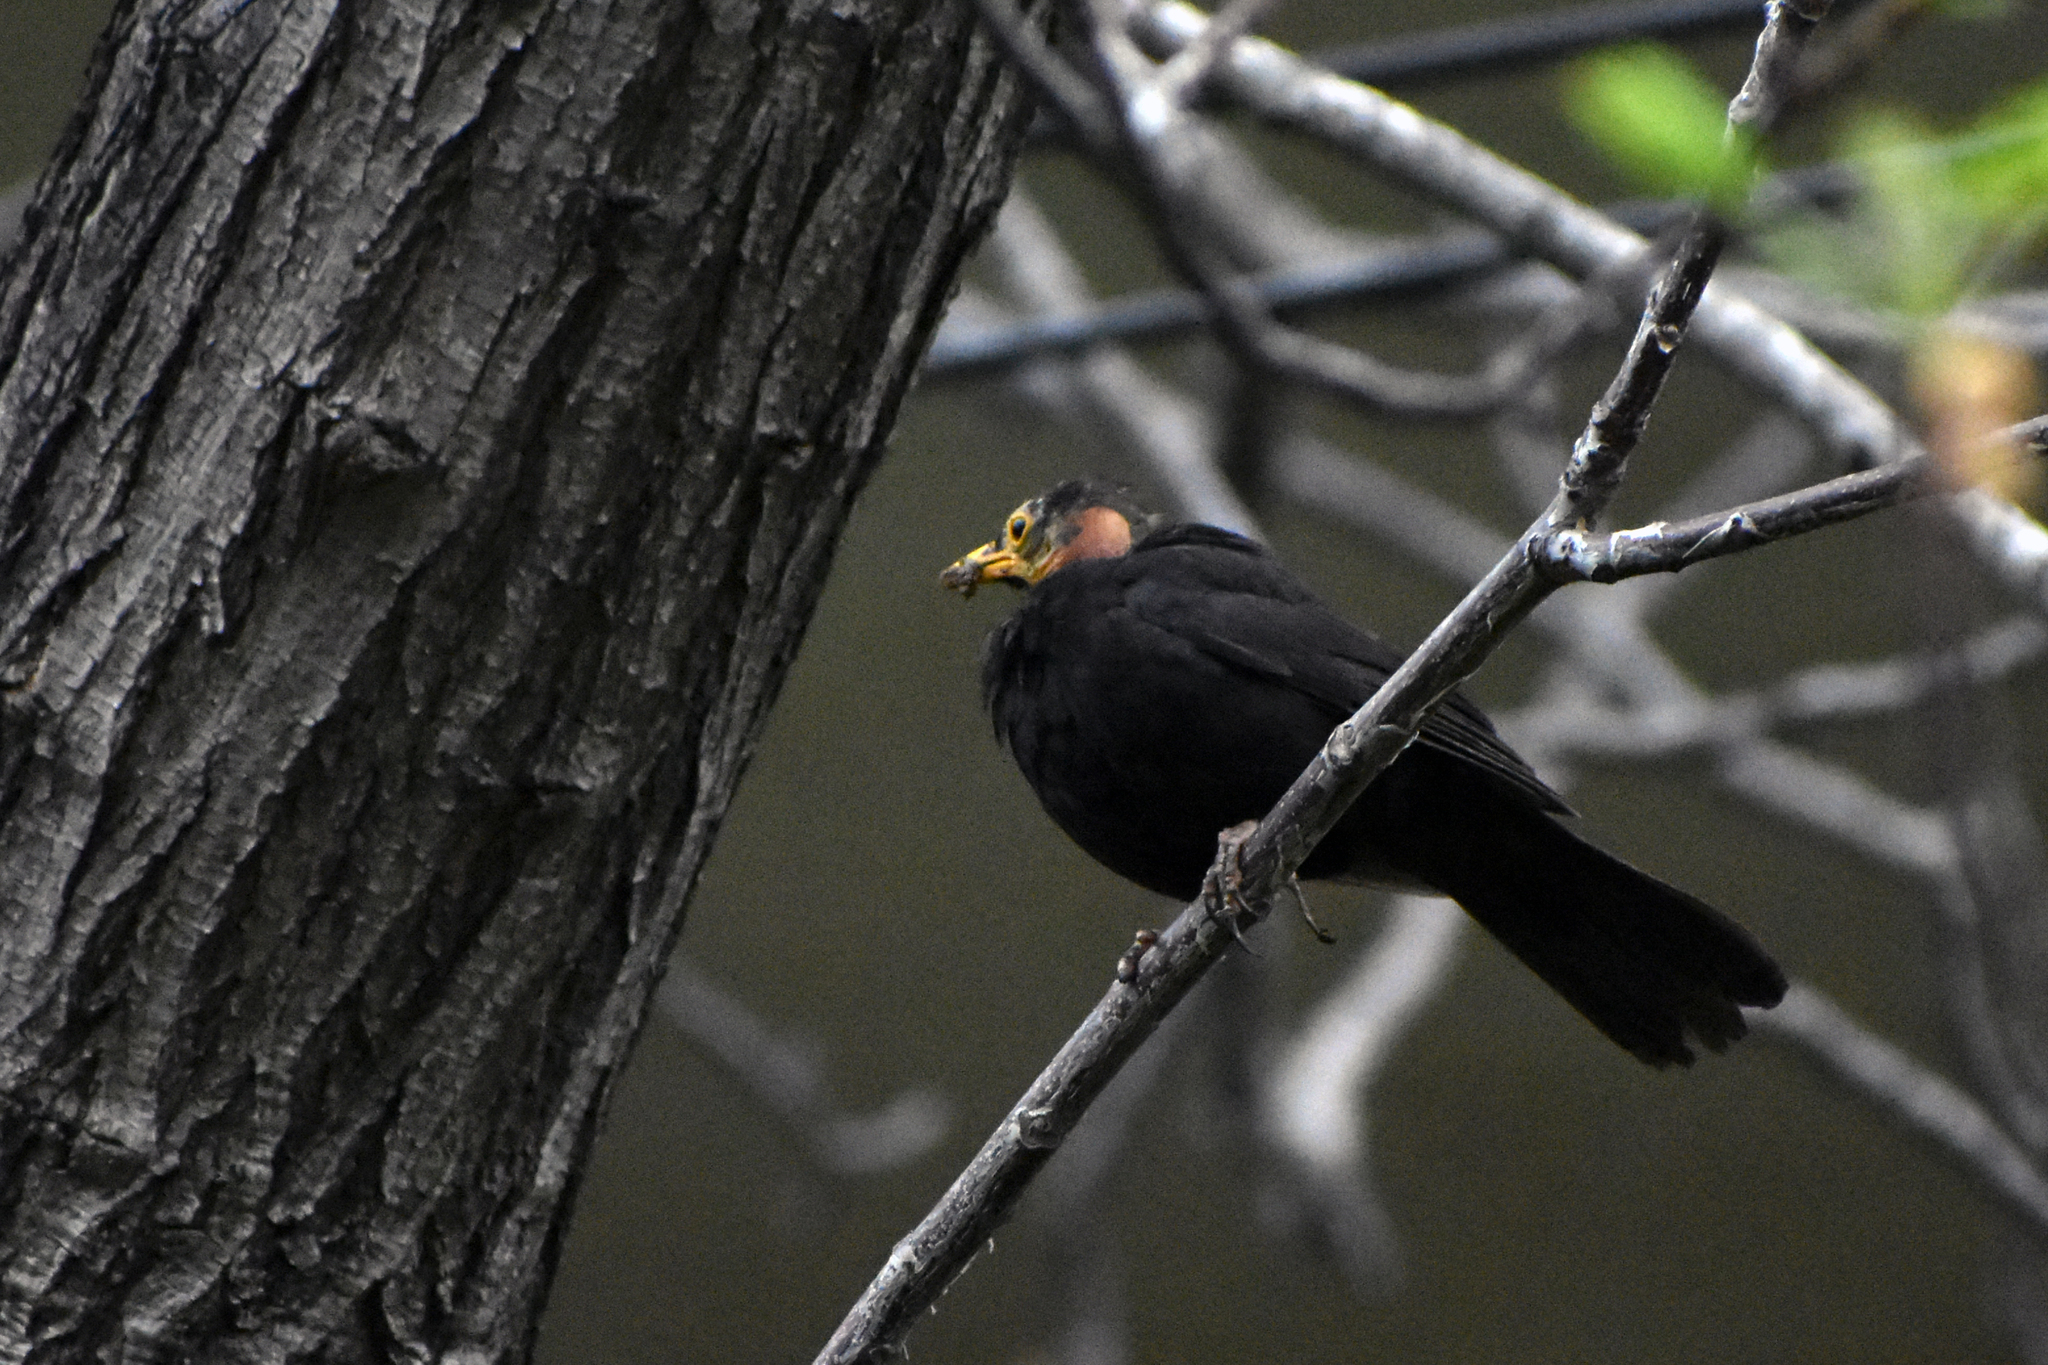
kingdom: Animalia
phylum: Chordata
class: Aves
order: Passeriformes
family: Turdidae
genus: Turdus
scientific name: Turdus merula
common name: Common blackbird
